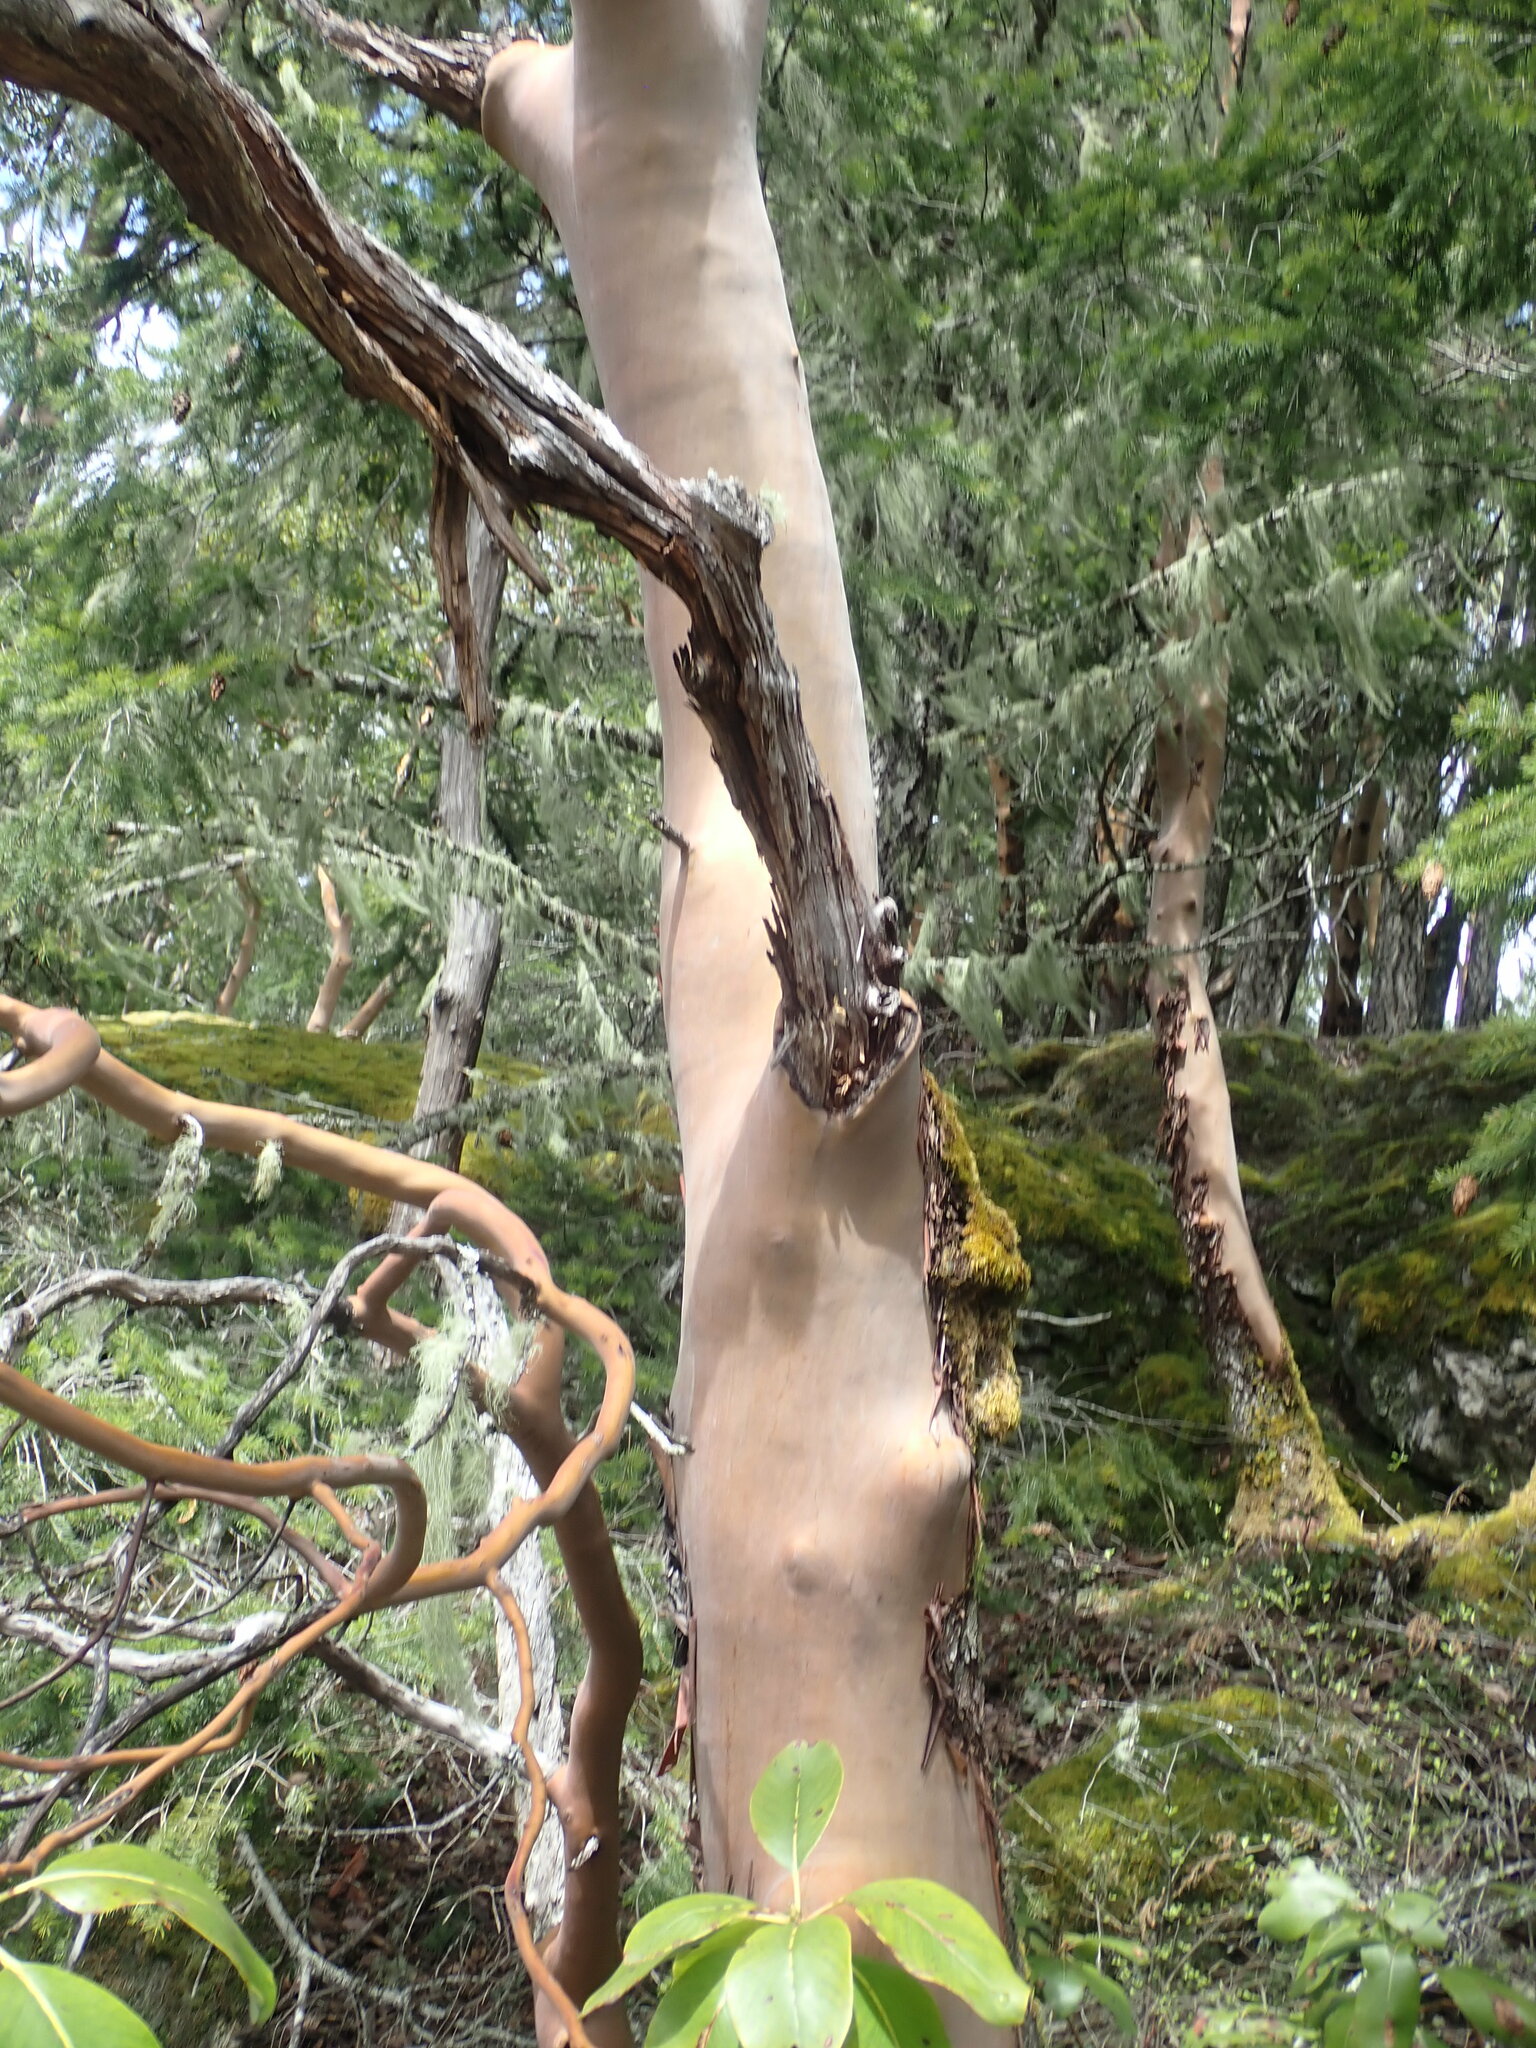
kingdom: Plantae
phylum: Tracheophyta
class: Magnoliopsida
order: Ericales
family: Ericaceae
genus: Arbutus
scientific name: Arbutus menziesii
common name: Pacific madrone
